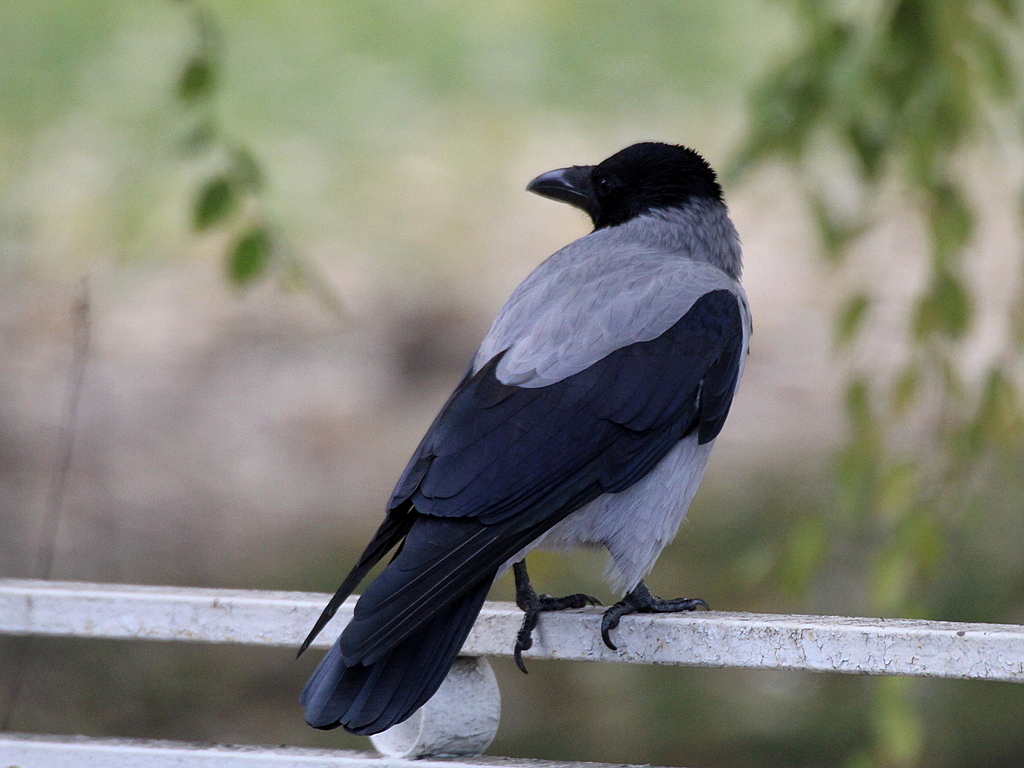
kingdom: Animalia
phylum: Chordata
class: Aves
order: Passeriformes
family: Corvidae
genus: Corvus
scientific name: Corvus cornix
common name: Hooded crow
